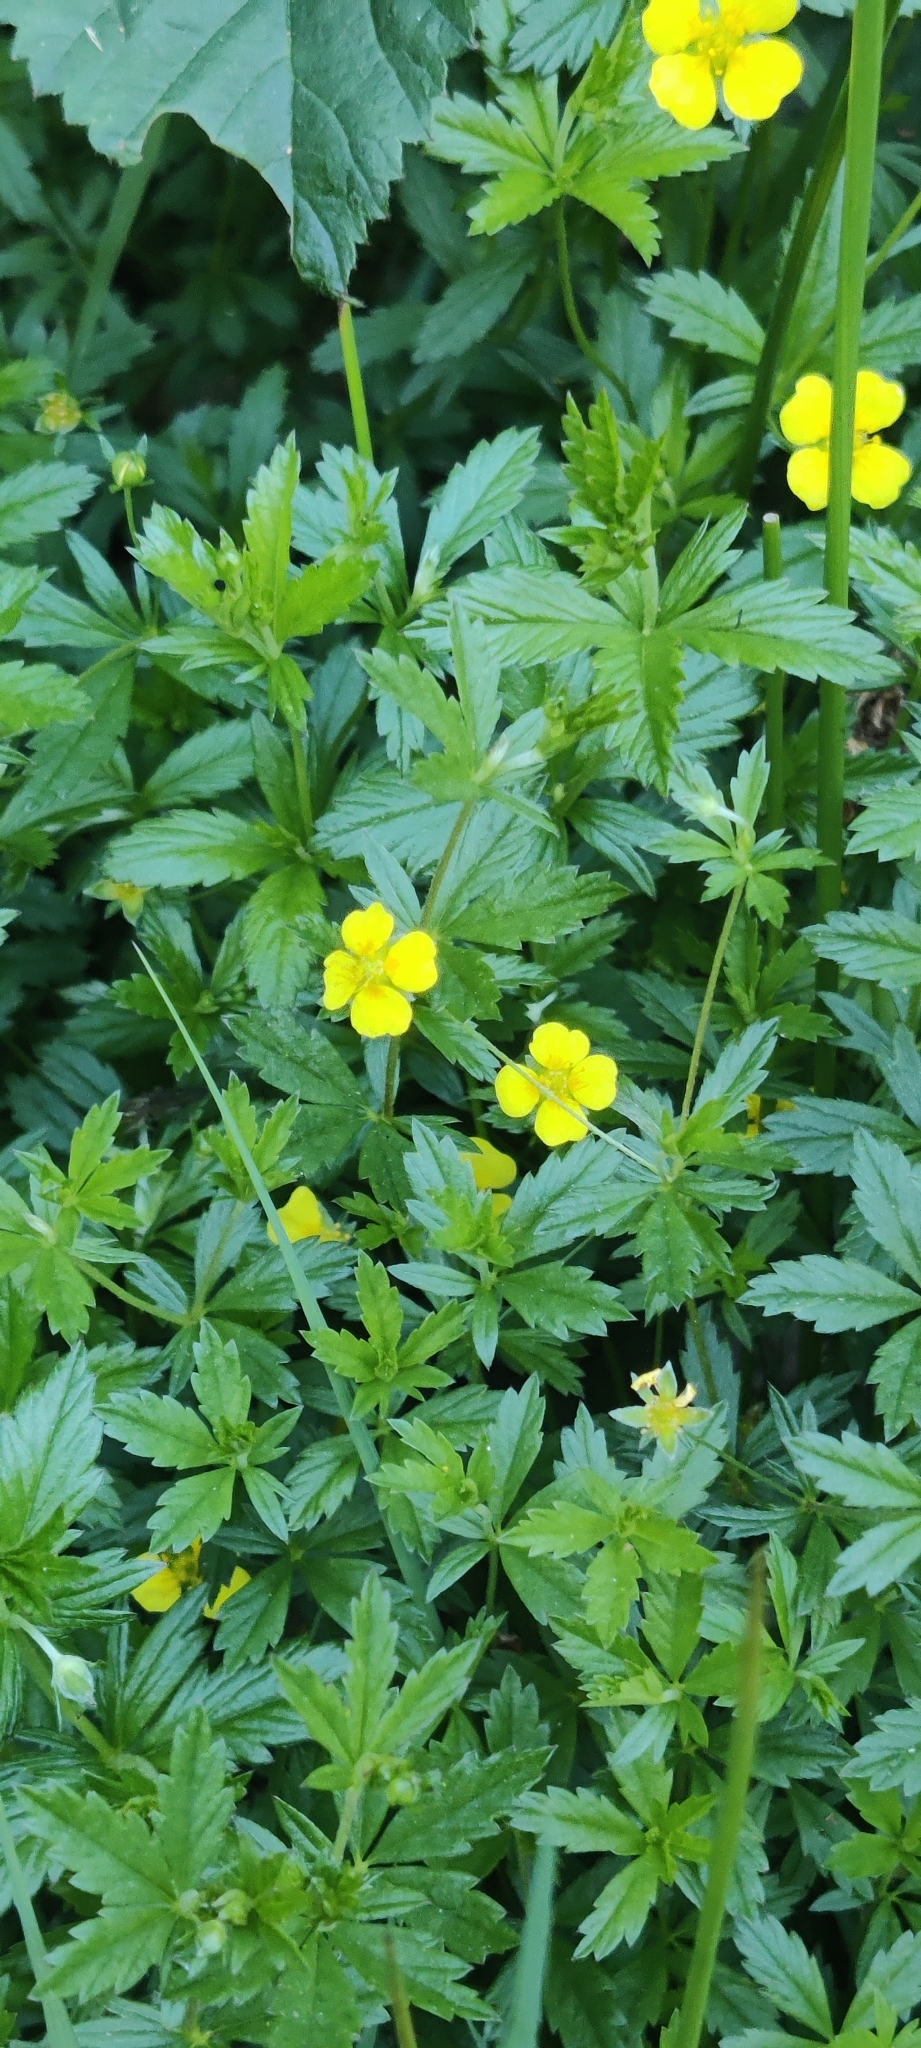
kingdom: Plantae
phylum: Tracheophyta
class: Magnoliopsida
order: Rosales
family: Rosaceae
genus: Potentilla
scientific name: Potentilla erecta
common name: Tormentil
